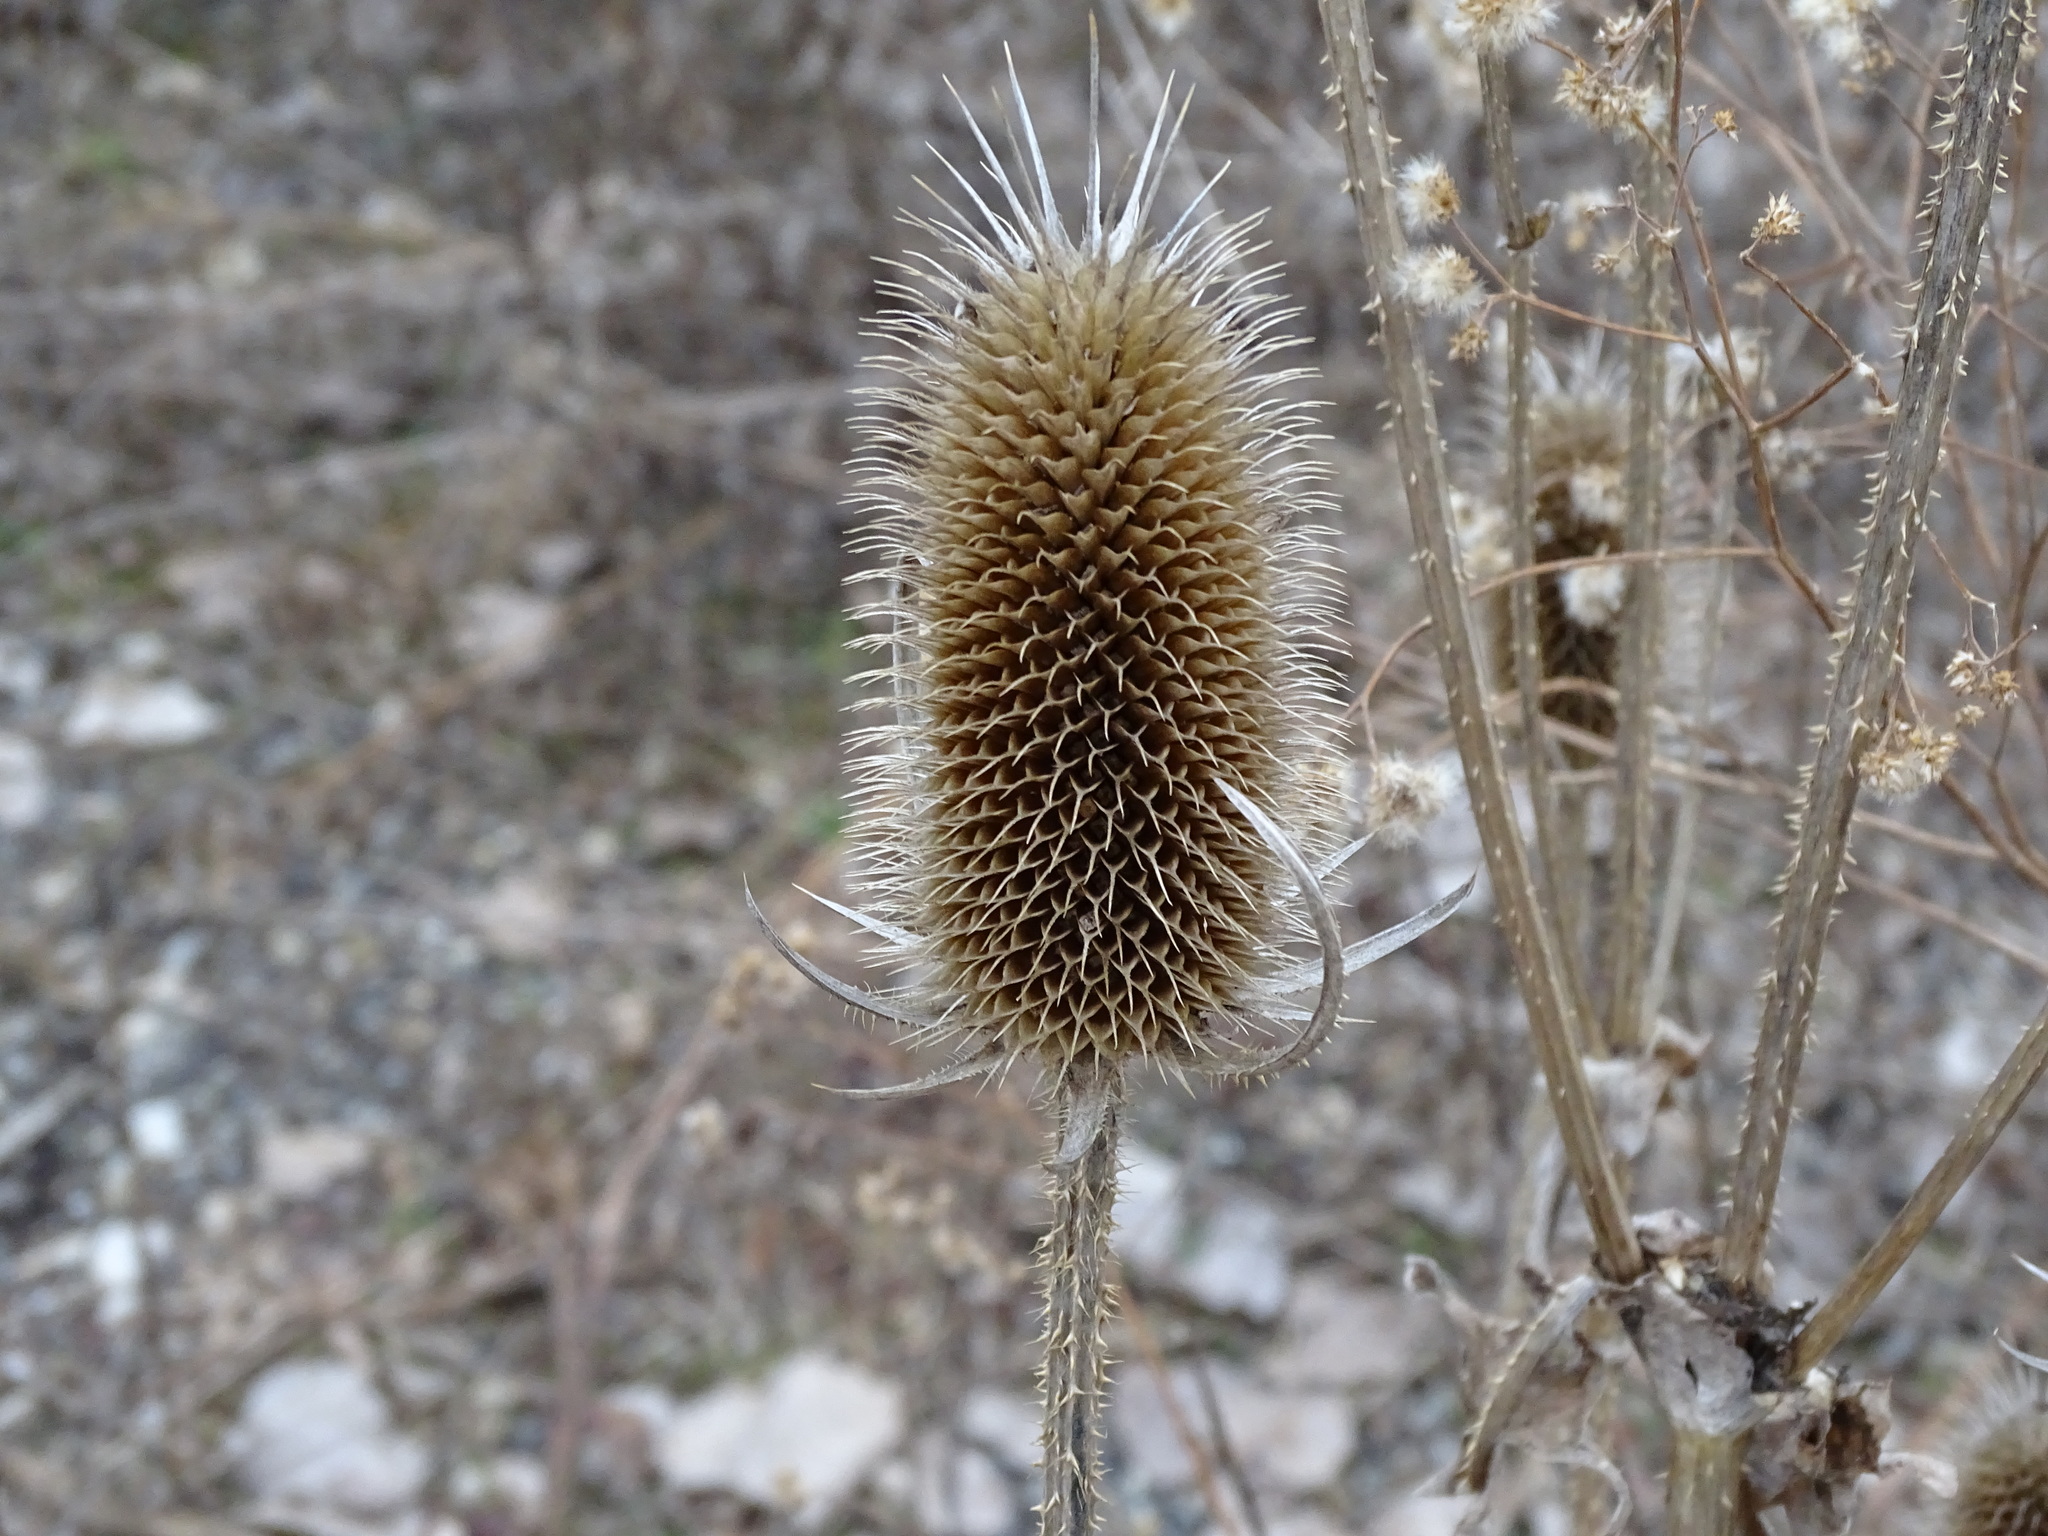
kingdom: Plantae
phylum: Tracheophyta
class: Magnoliopsida
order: Dipsacales
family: Caprifoliaceae
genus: Dipsacus
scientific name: Dipsacus laciniatus
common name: Cut-leaved teasel
